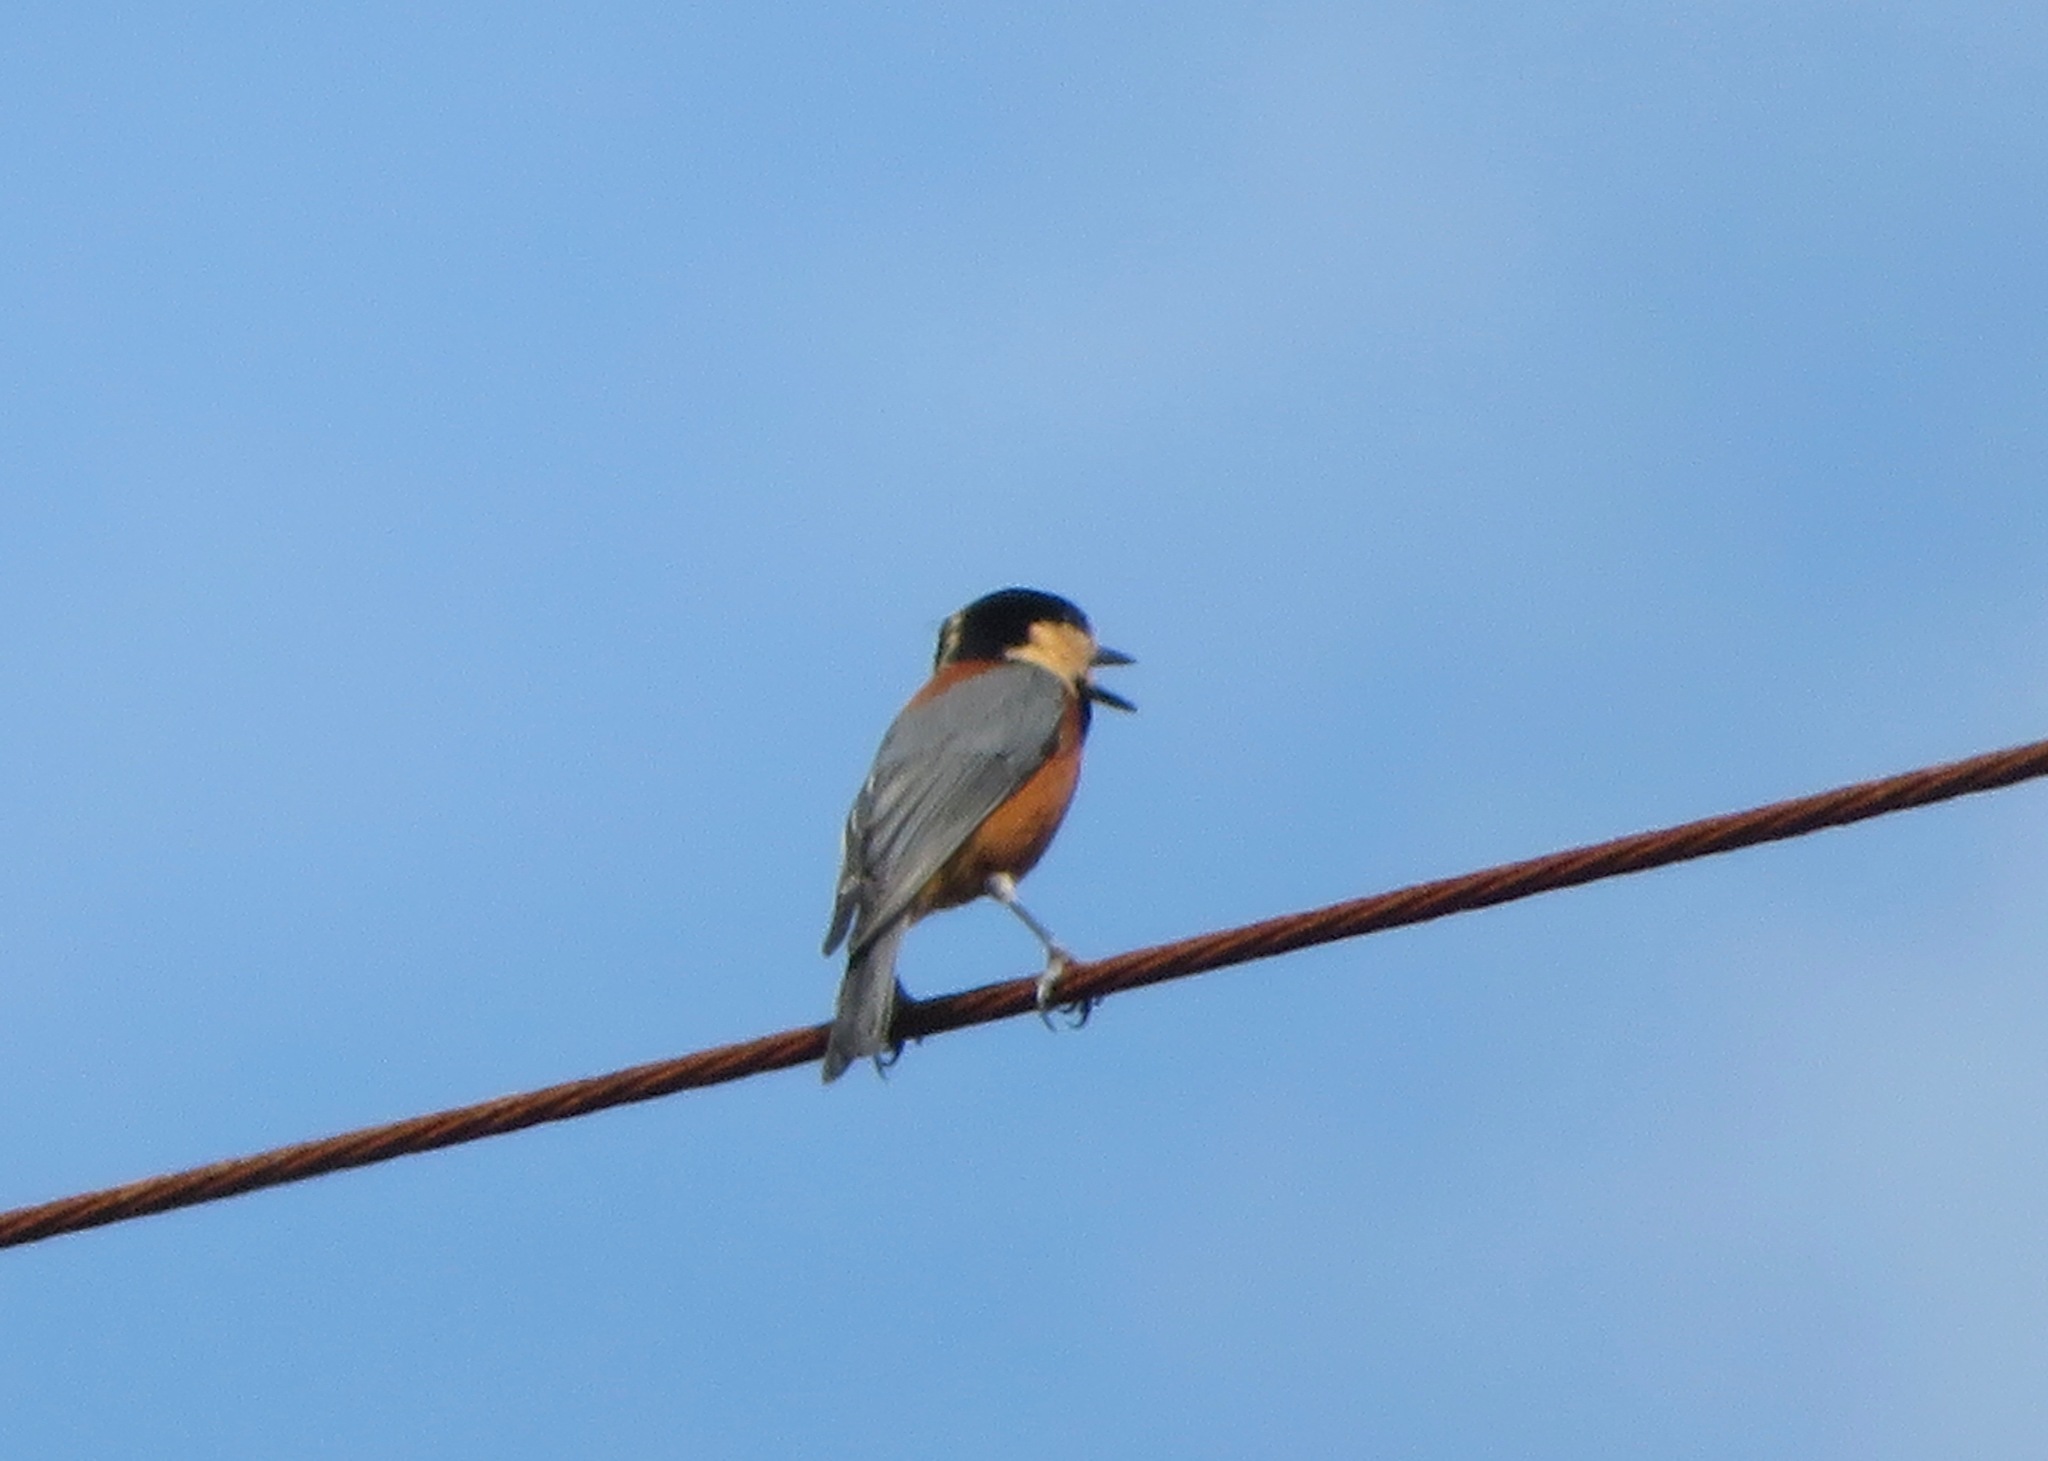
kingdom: Animalia
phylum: Chordata
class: Aves
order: Passeriformes
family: Paridae
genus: Poecile
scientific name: Poecile varius
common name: Varied tit
